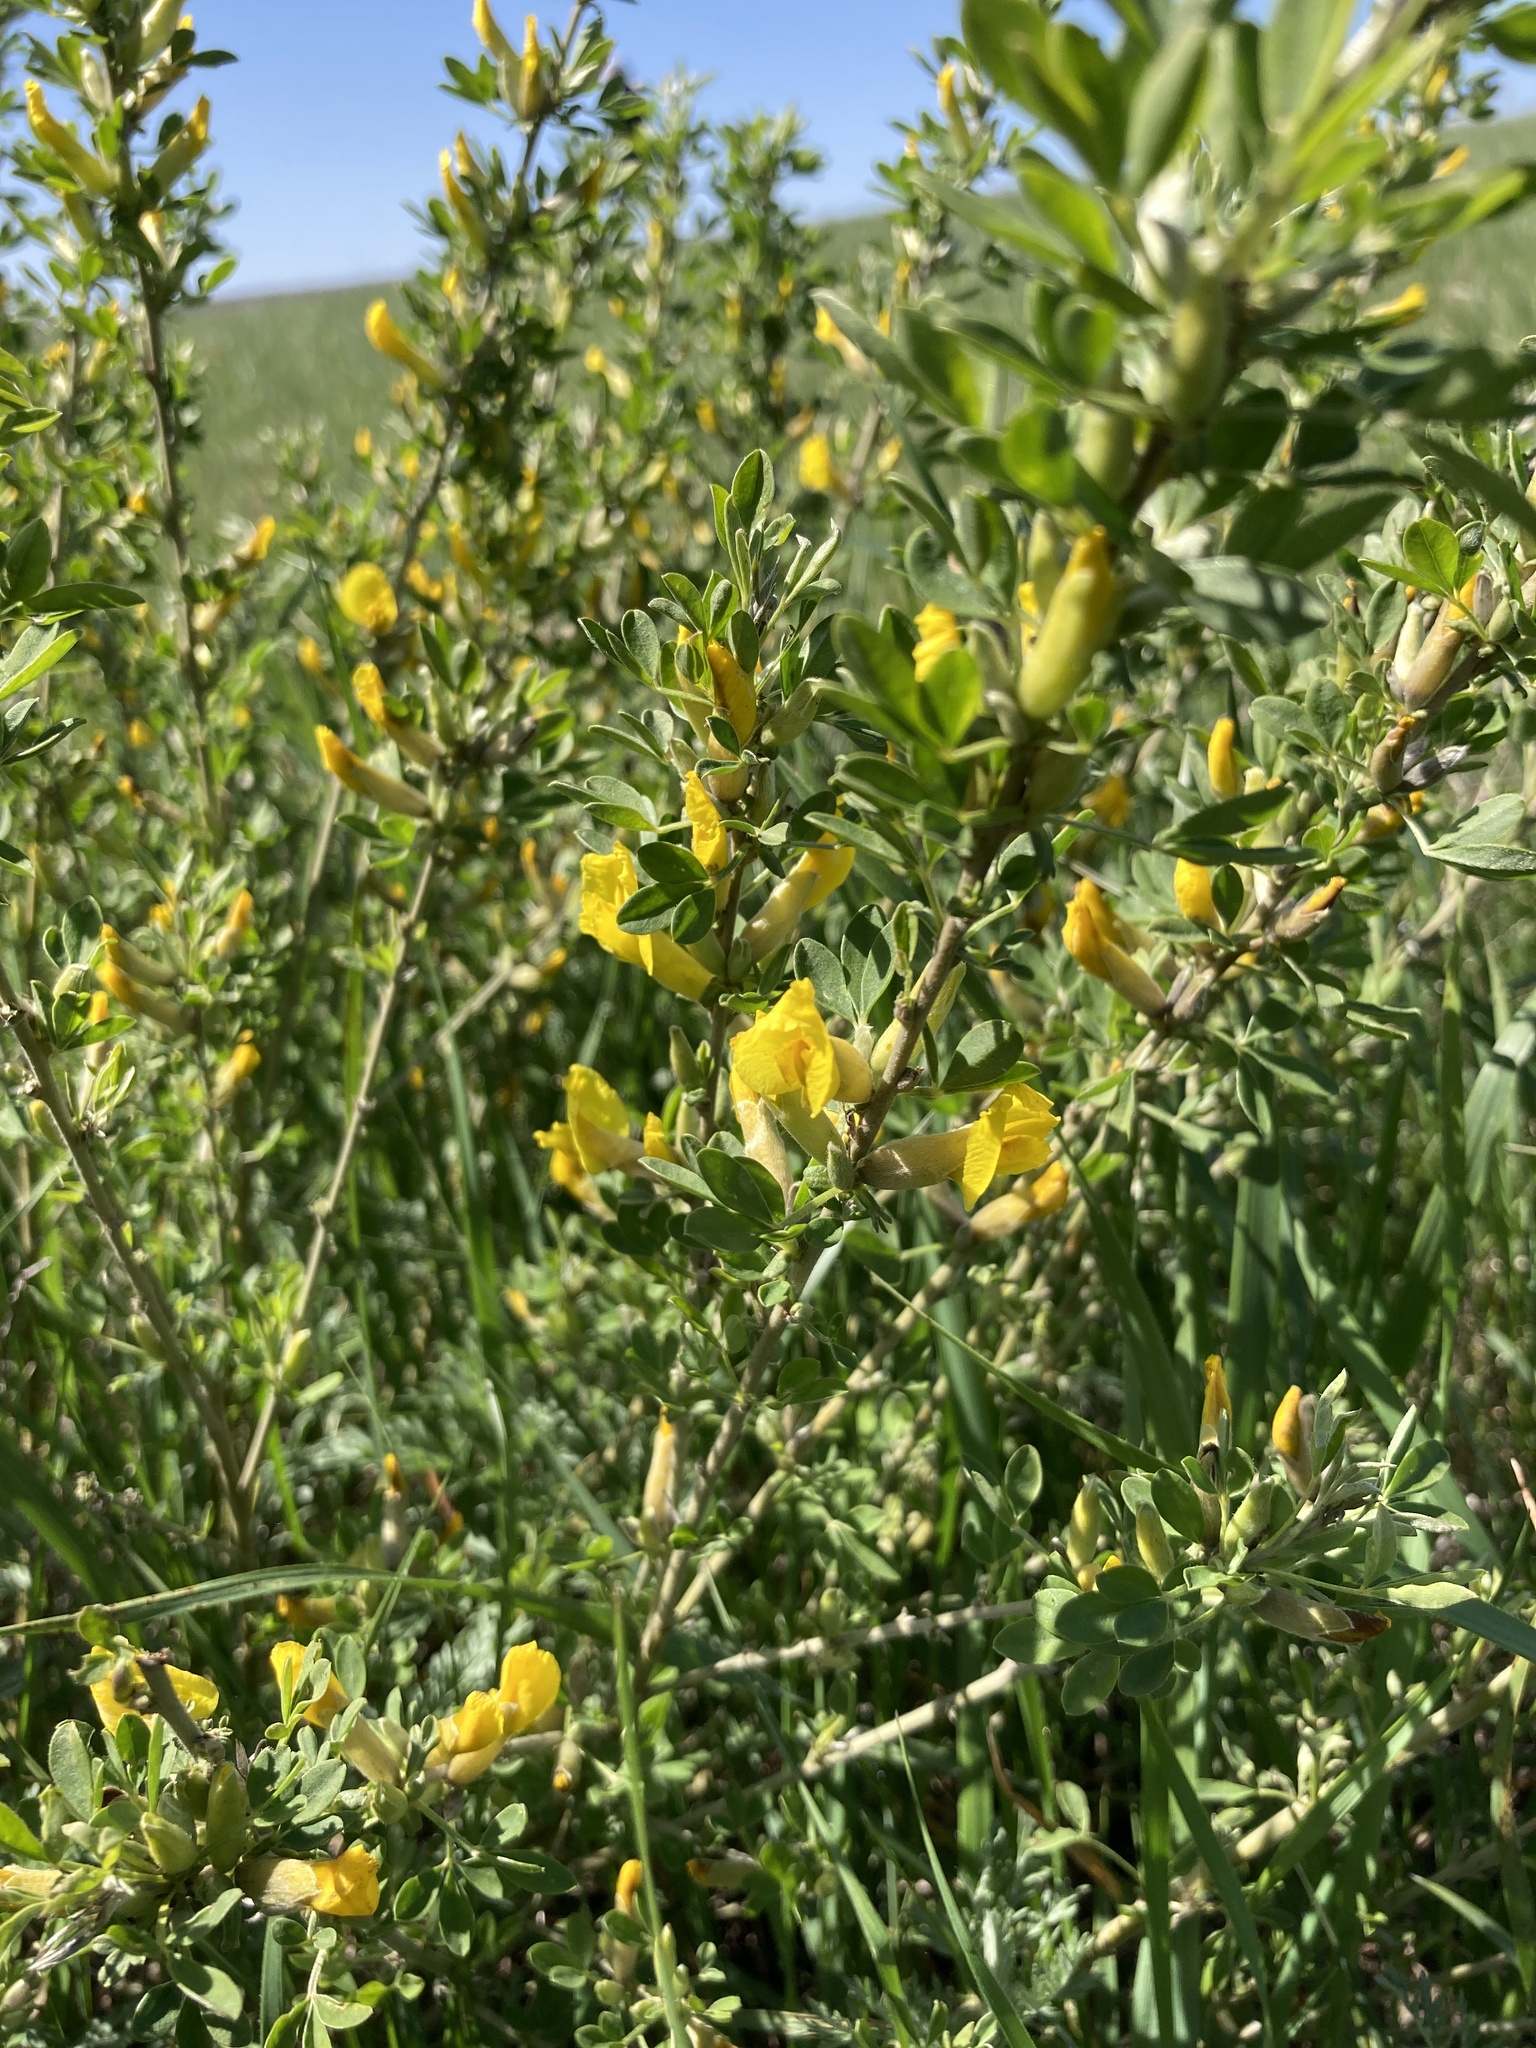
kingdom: Plantae
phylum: Tracheophyta
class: Magnoliopsida
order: Fabales
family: Fabaceae
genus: Chamaecytisus
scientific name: Chamaecytisus ruthenicus
